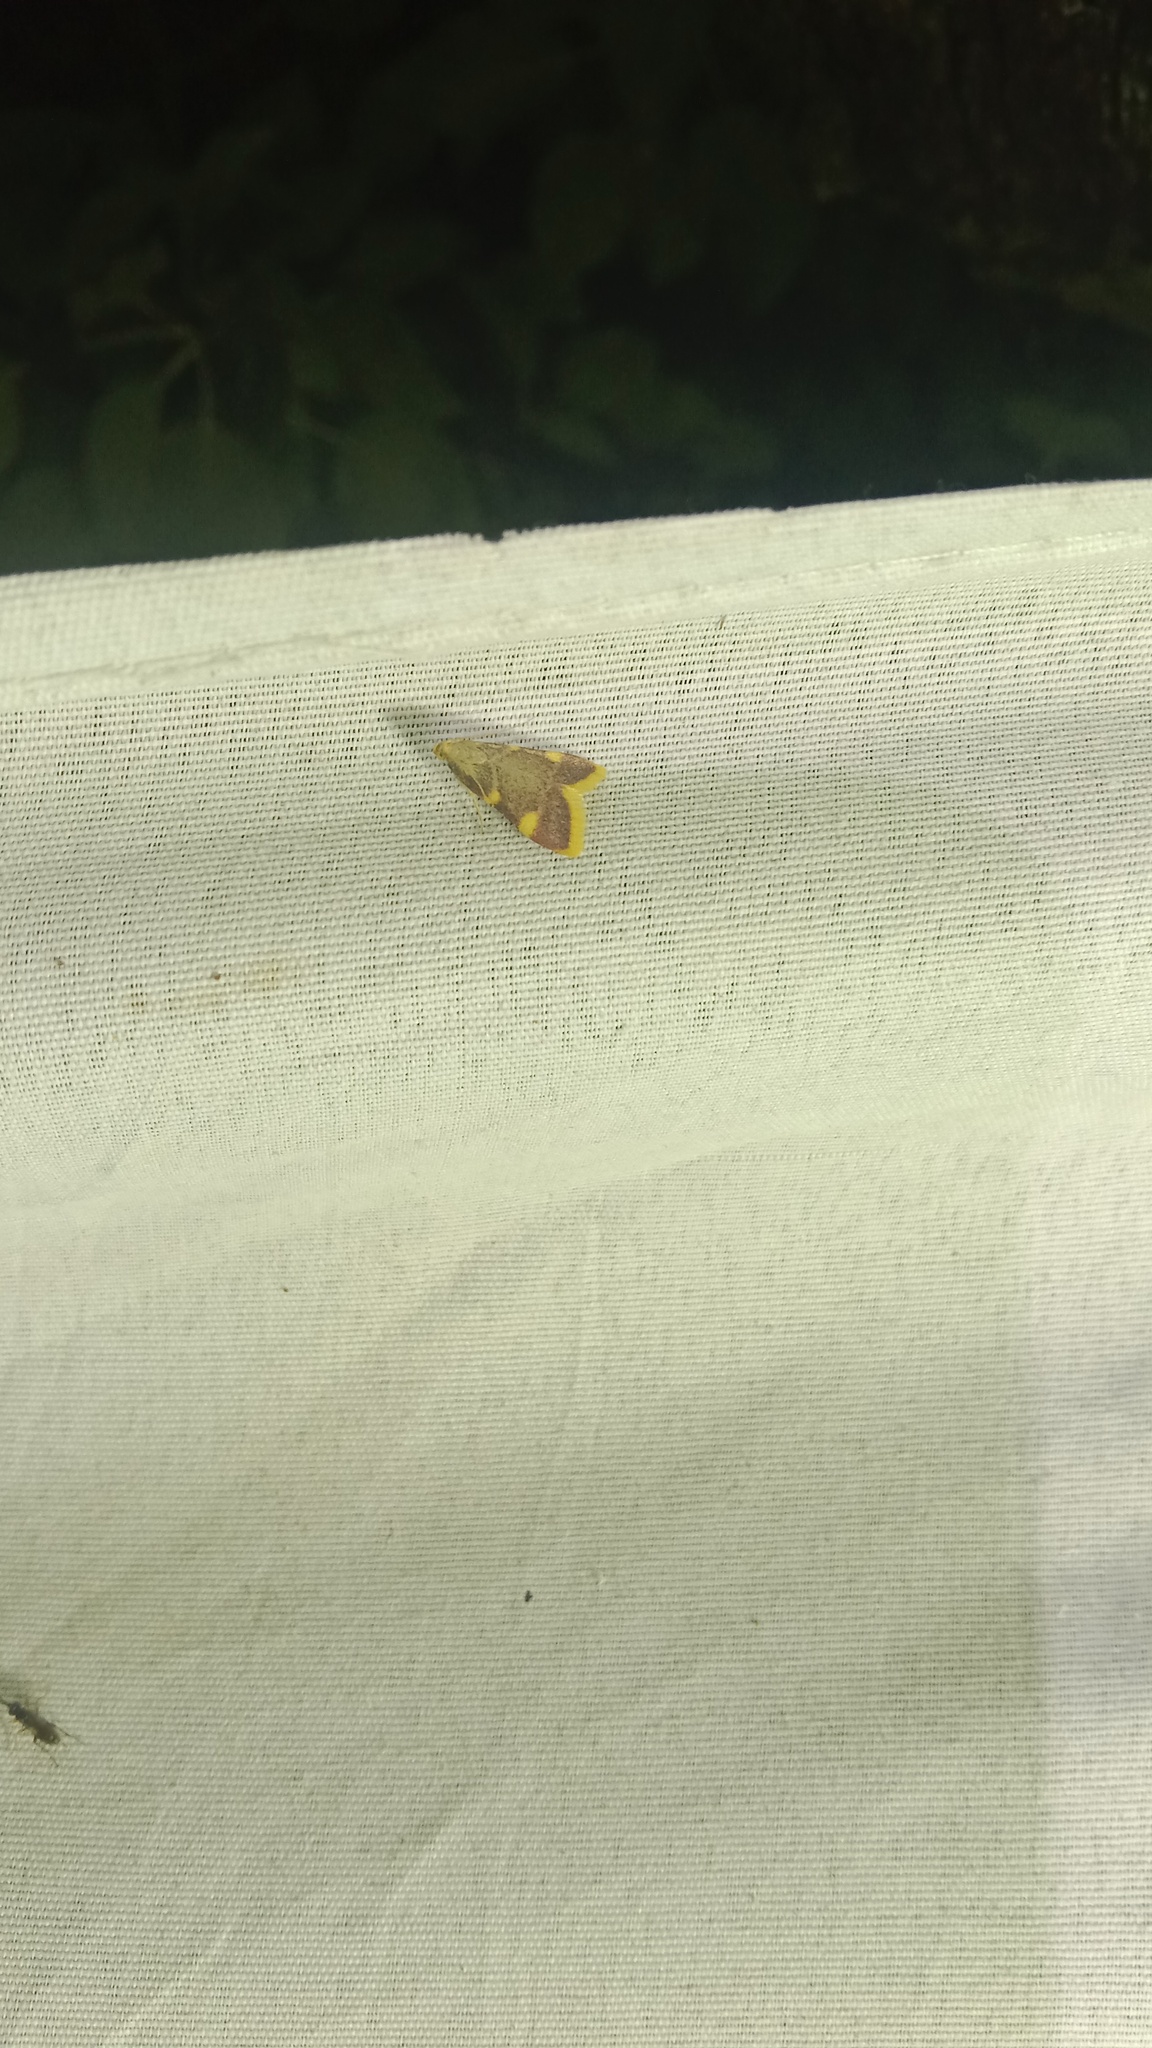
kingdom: Animalia
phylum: Arthropoda
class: Insecta
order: Lepidoptera
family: Pyralidae
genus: Hypsopygia
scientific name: Hypsopygia costalis
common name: Gold triangle
